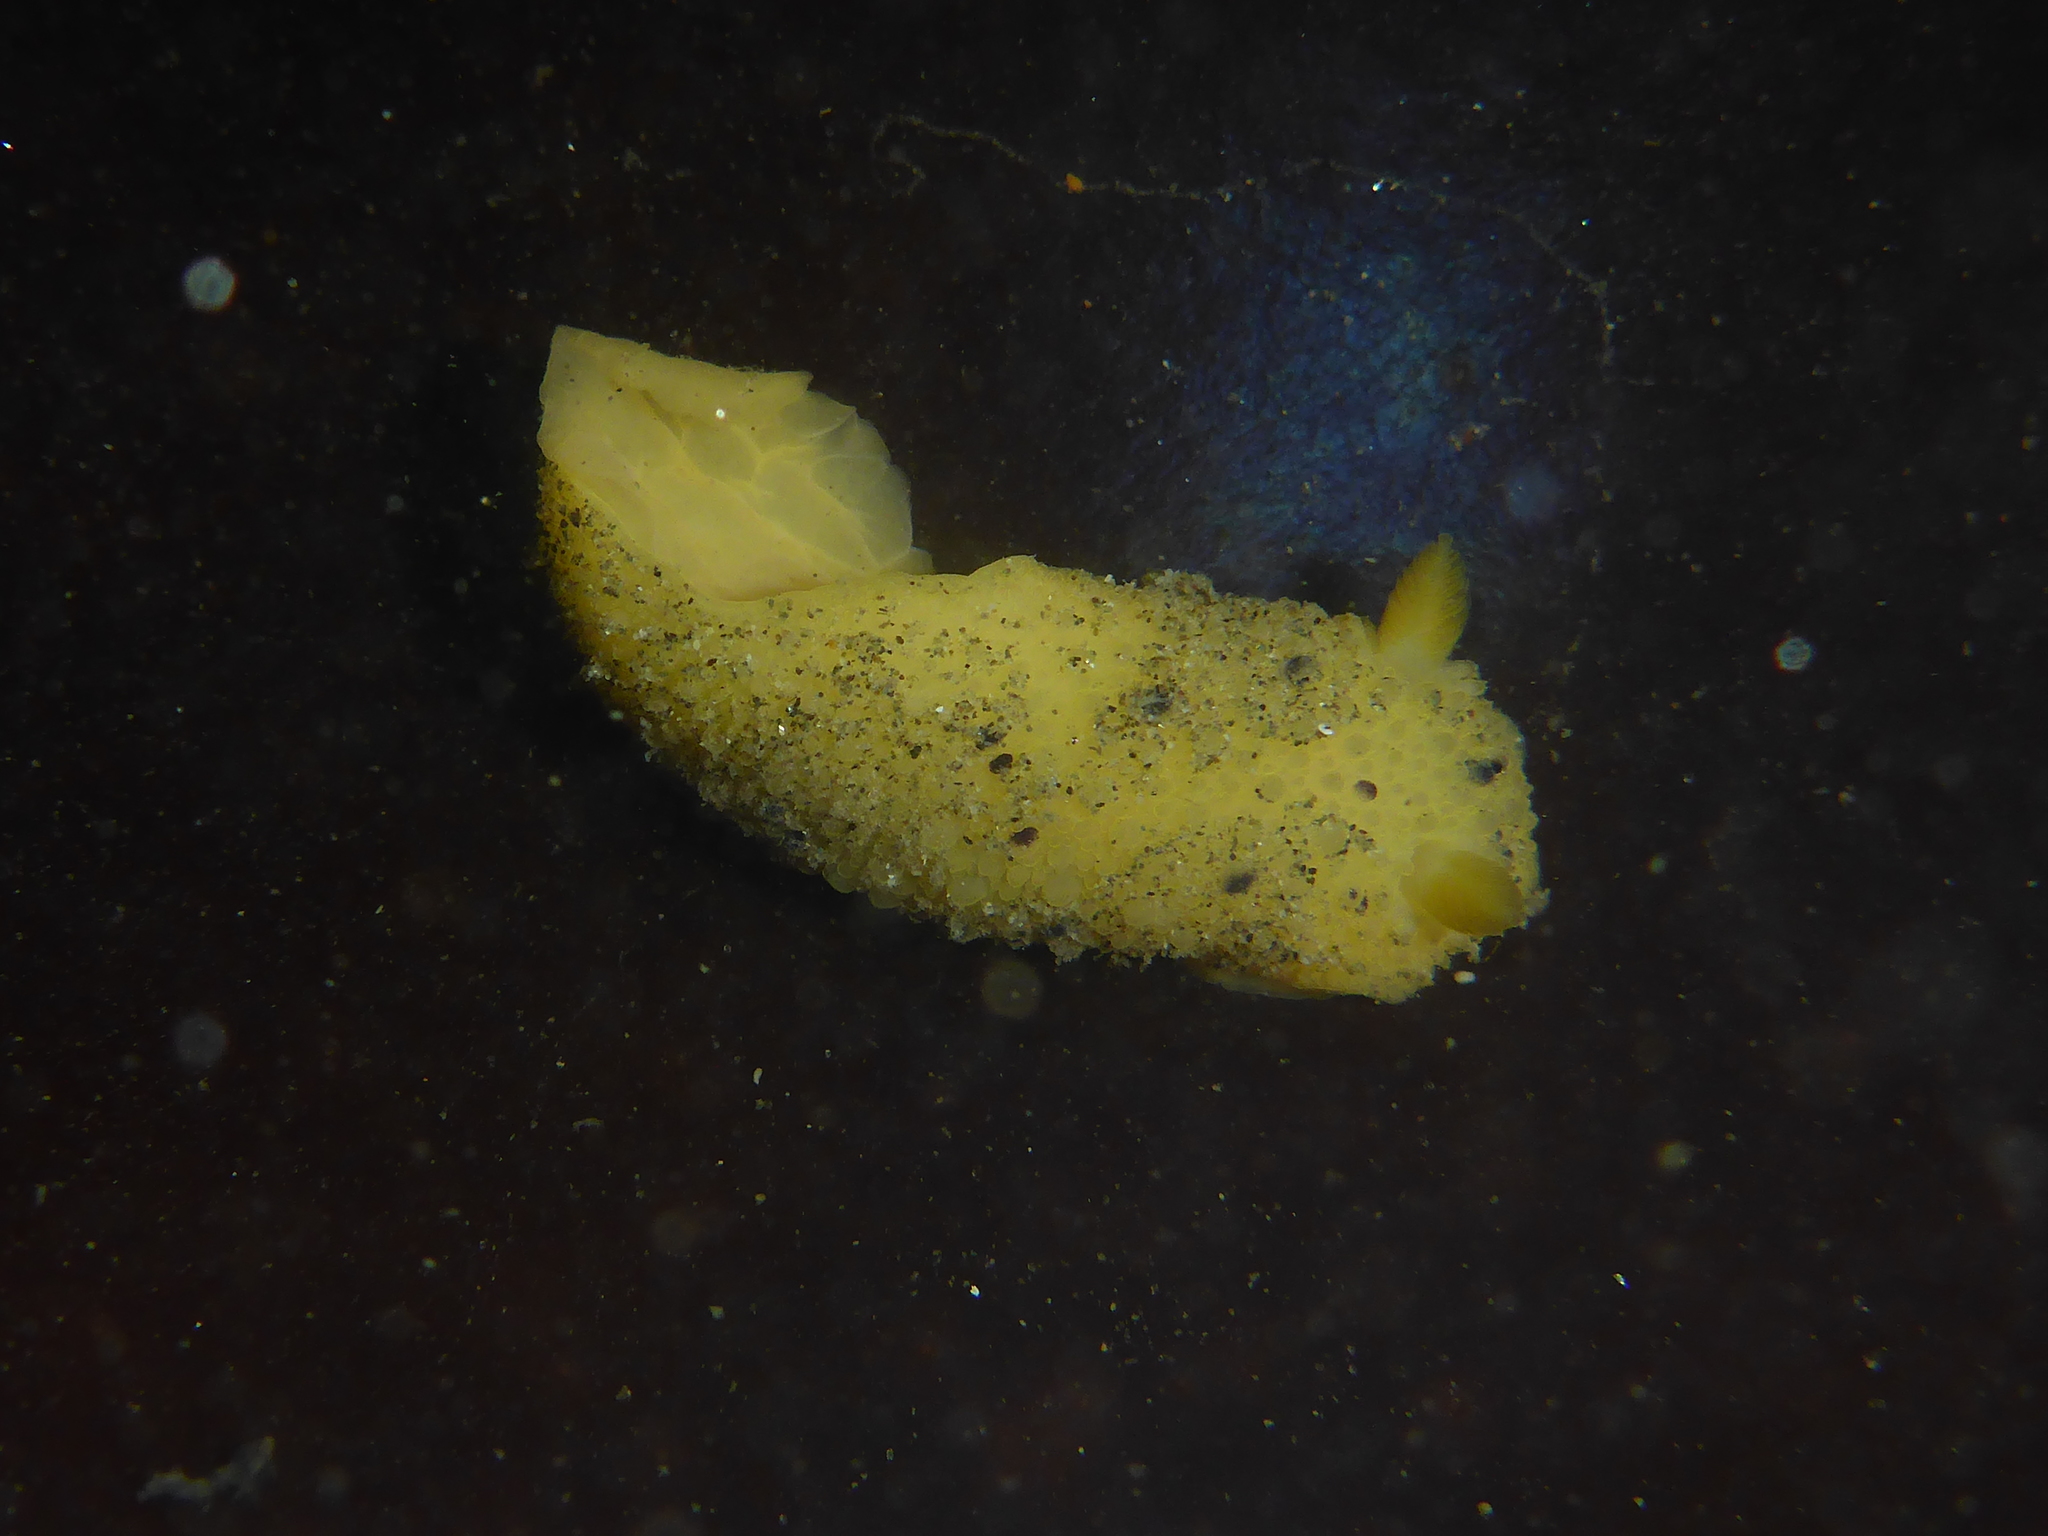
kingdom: Animalia
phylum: Mollusca
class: Gastropoda
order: Nudibranchia
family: Dorididae
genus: Doris
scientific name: Doris montereyensis
